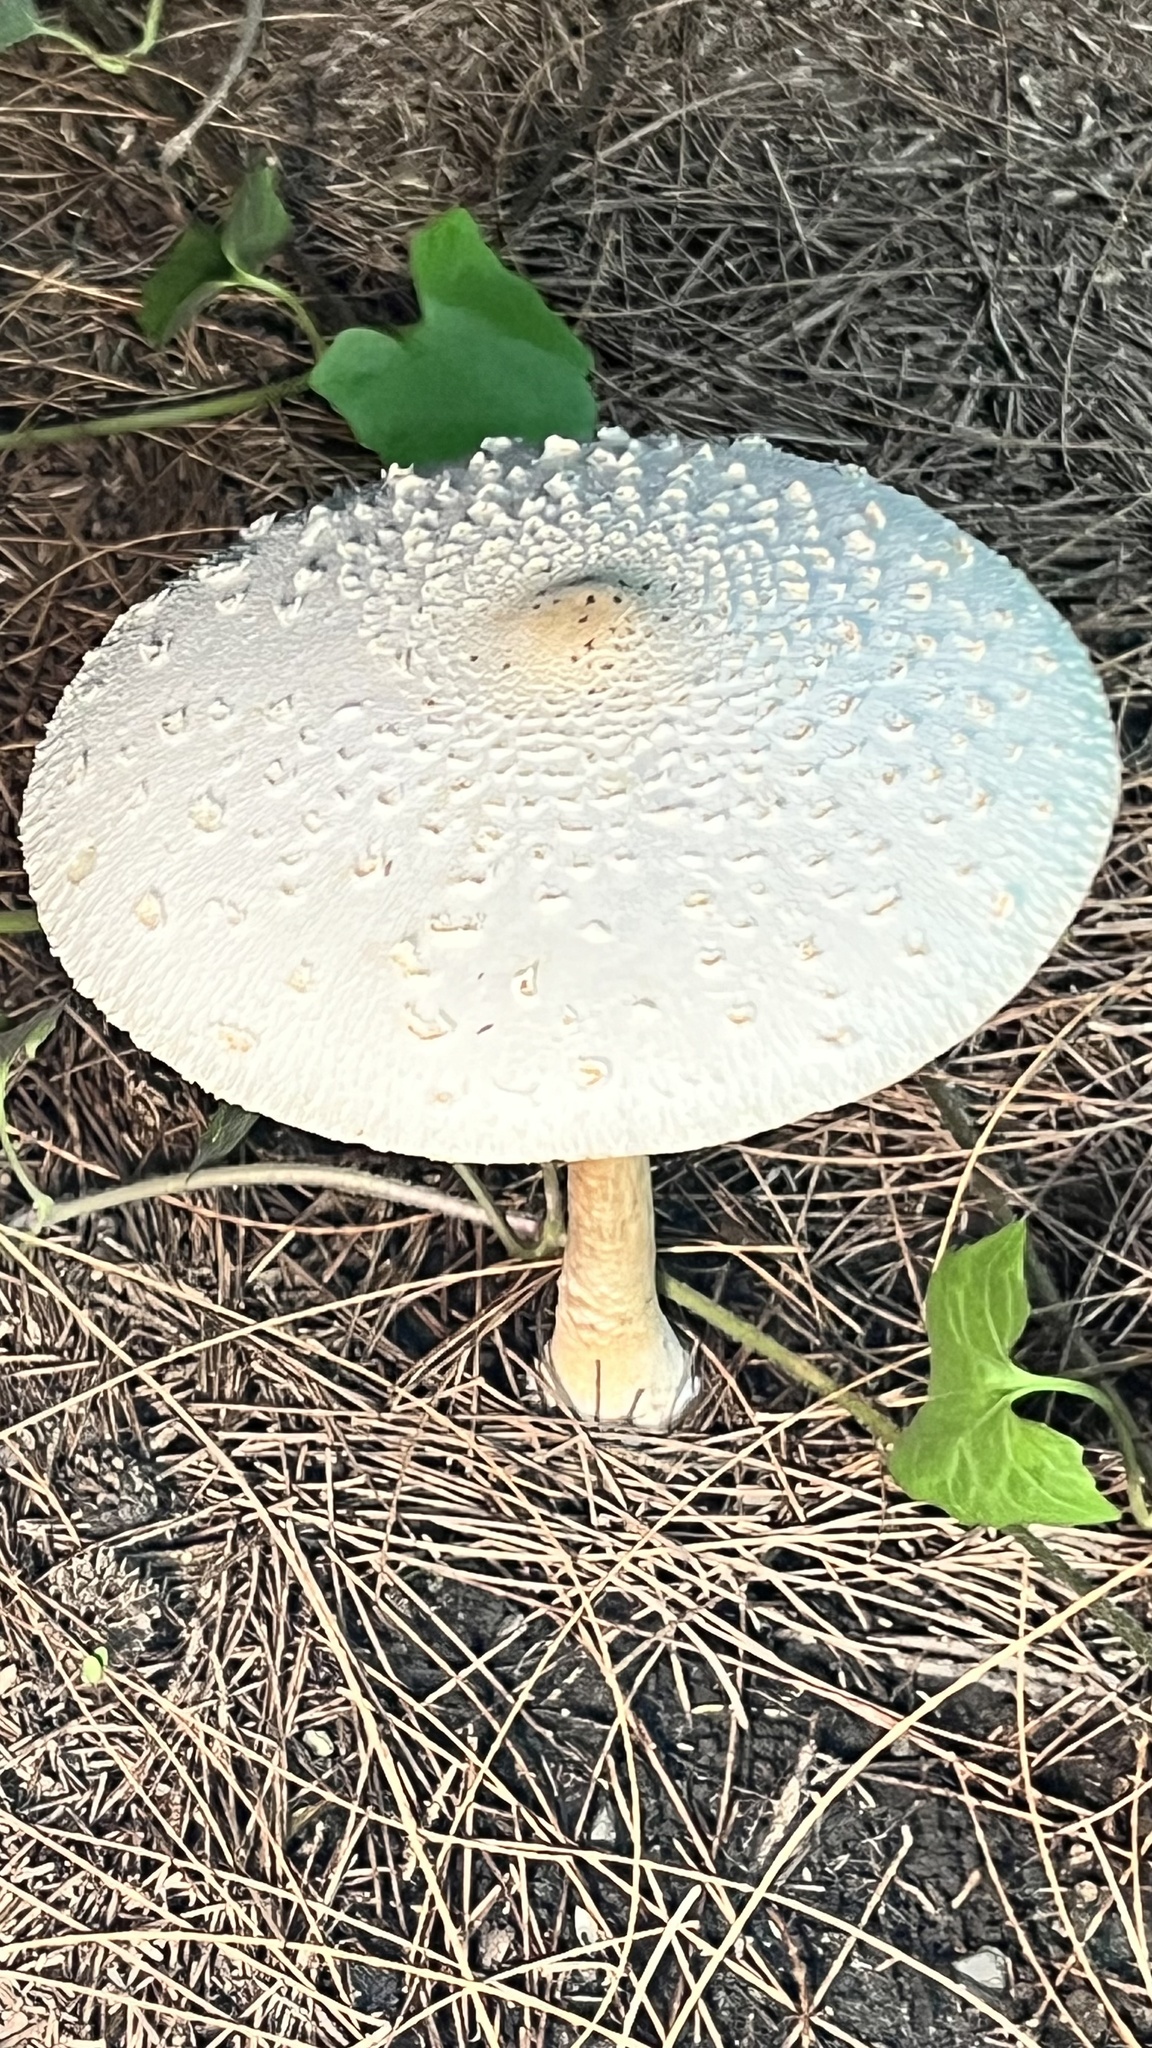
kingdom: Fungi
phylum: Basidiomycota
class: Agaricomycetes
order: Agaricales
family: Agaricaceae
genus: Chlorophyllum
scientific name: Chlorophyllum molybdites
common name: False parasol
